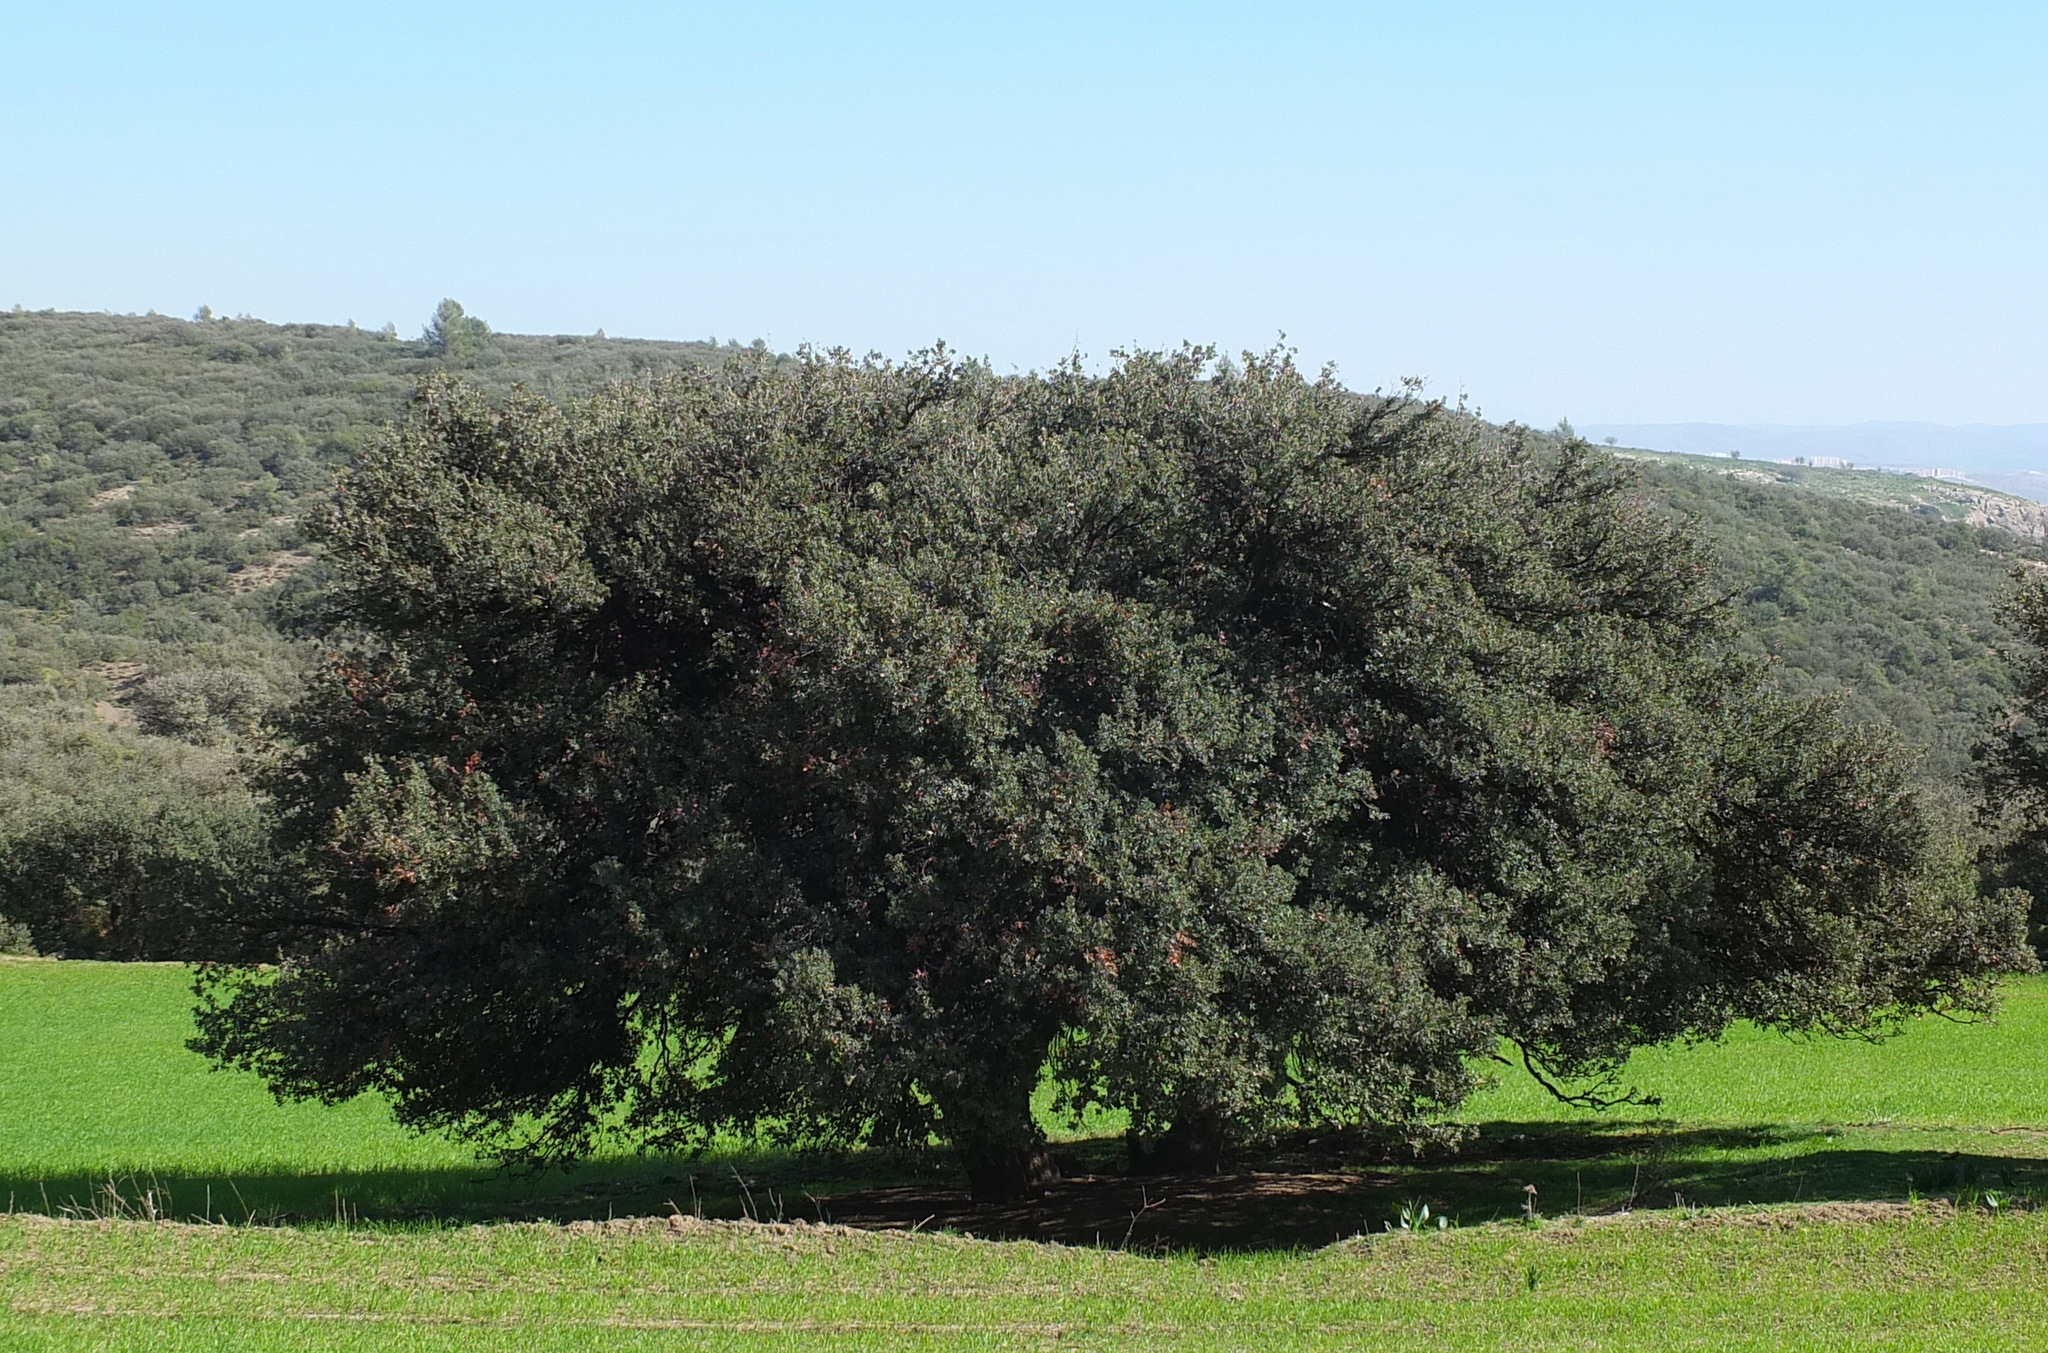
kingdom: Plantae
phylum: Tracheophyta
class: Magnoliopsida
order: Fagales
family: Fagaceae
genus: Quercus
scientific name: Quercus rotundifolia
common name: Holm oak
